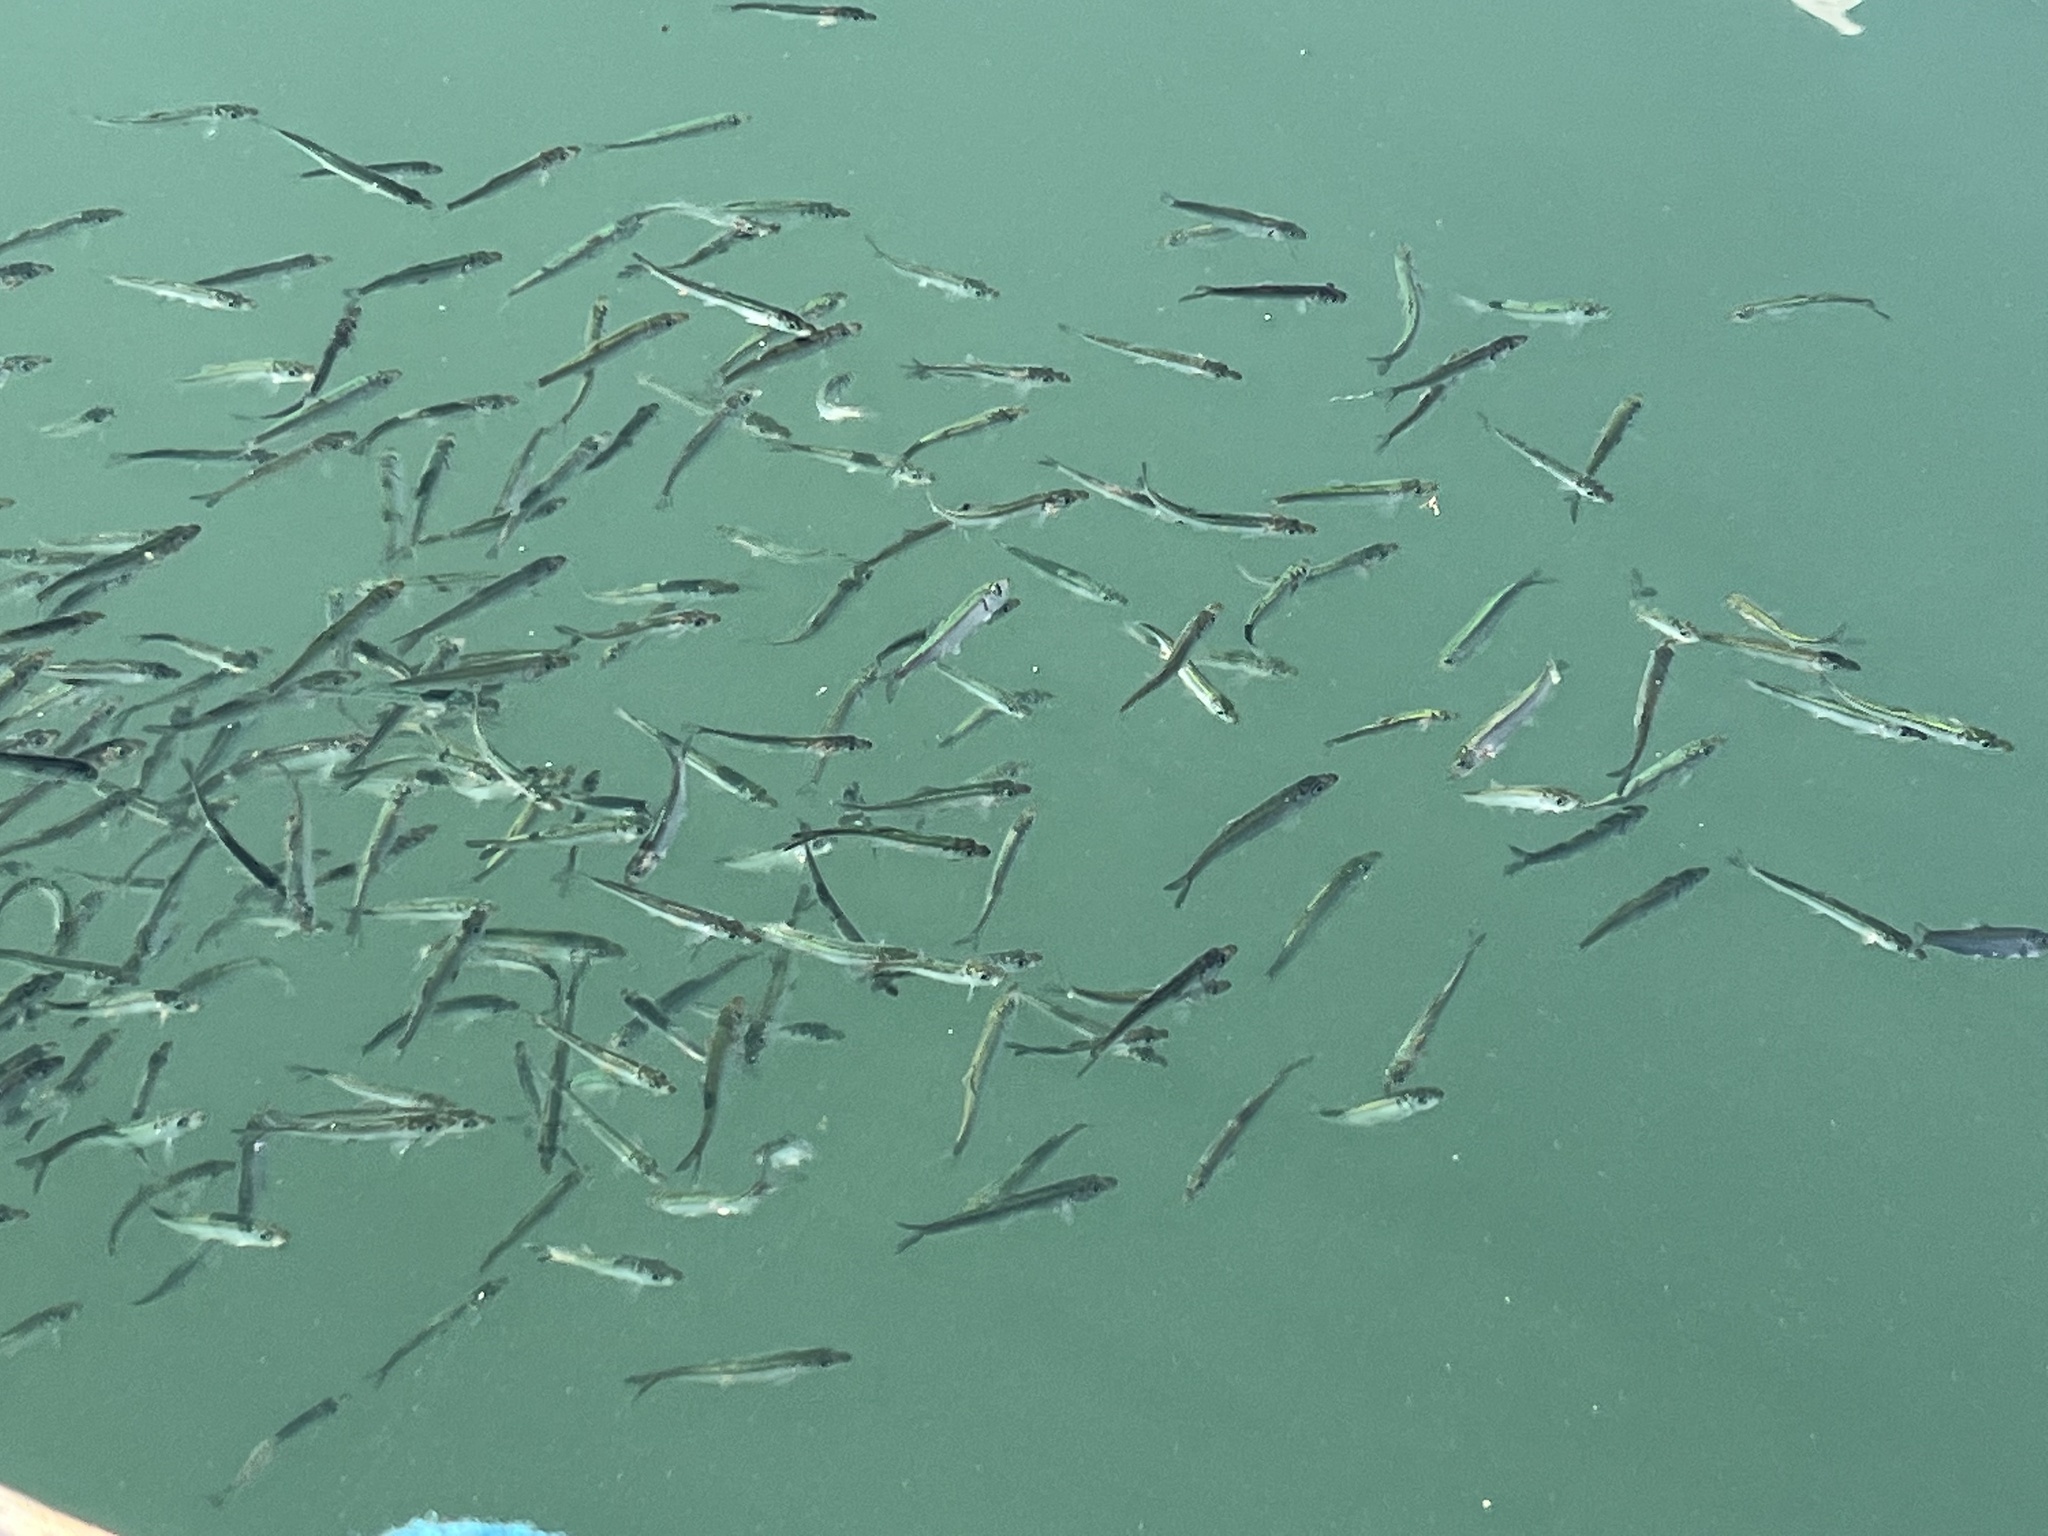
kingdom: Animalia
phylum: Chordata
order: Clupeiformes
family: Clupeidae
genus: Clupea
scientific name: Clupea pallasii
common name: Pacific herring
